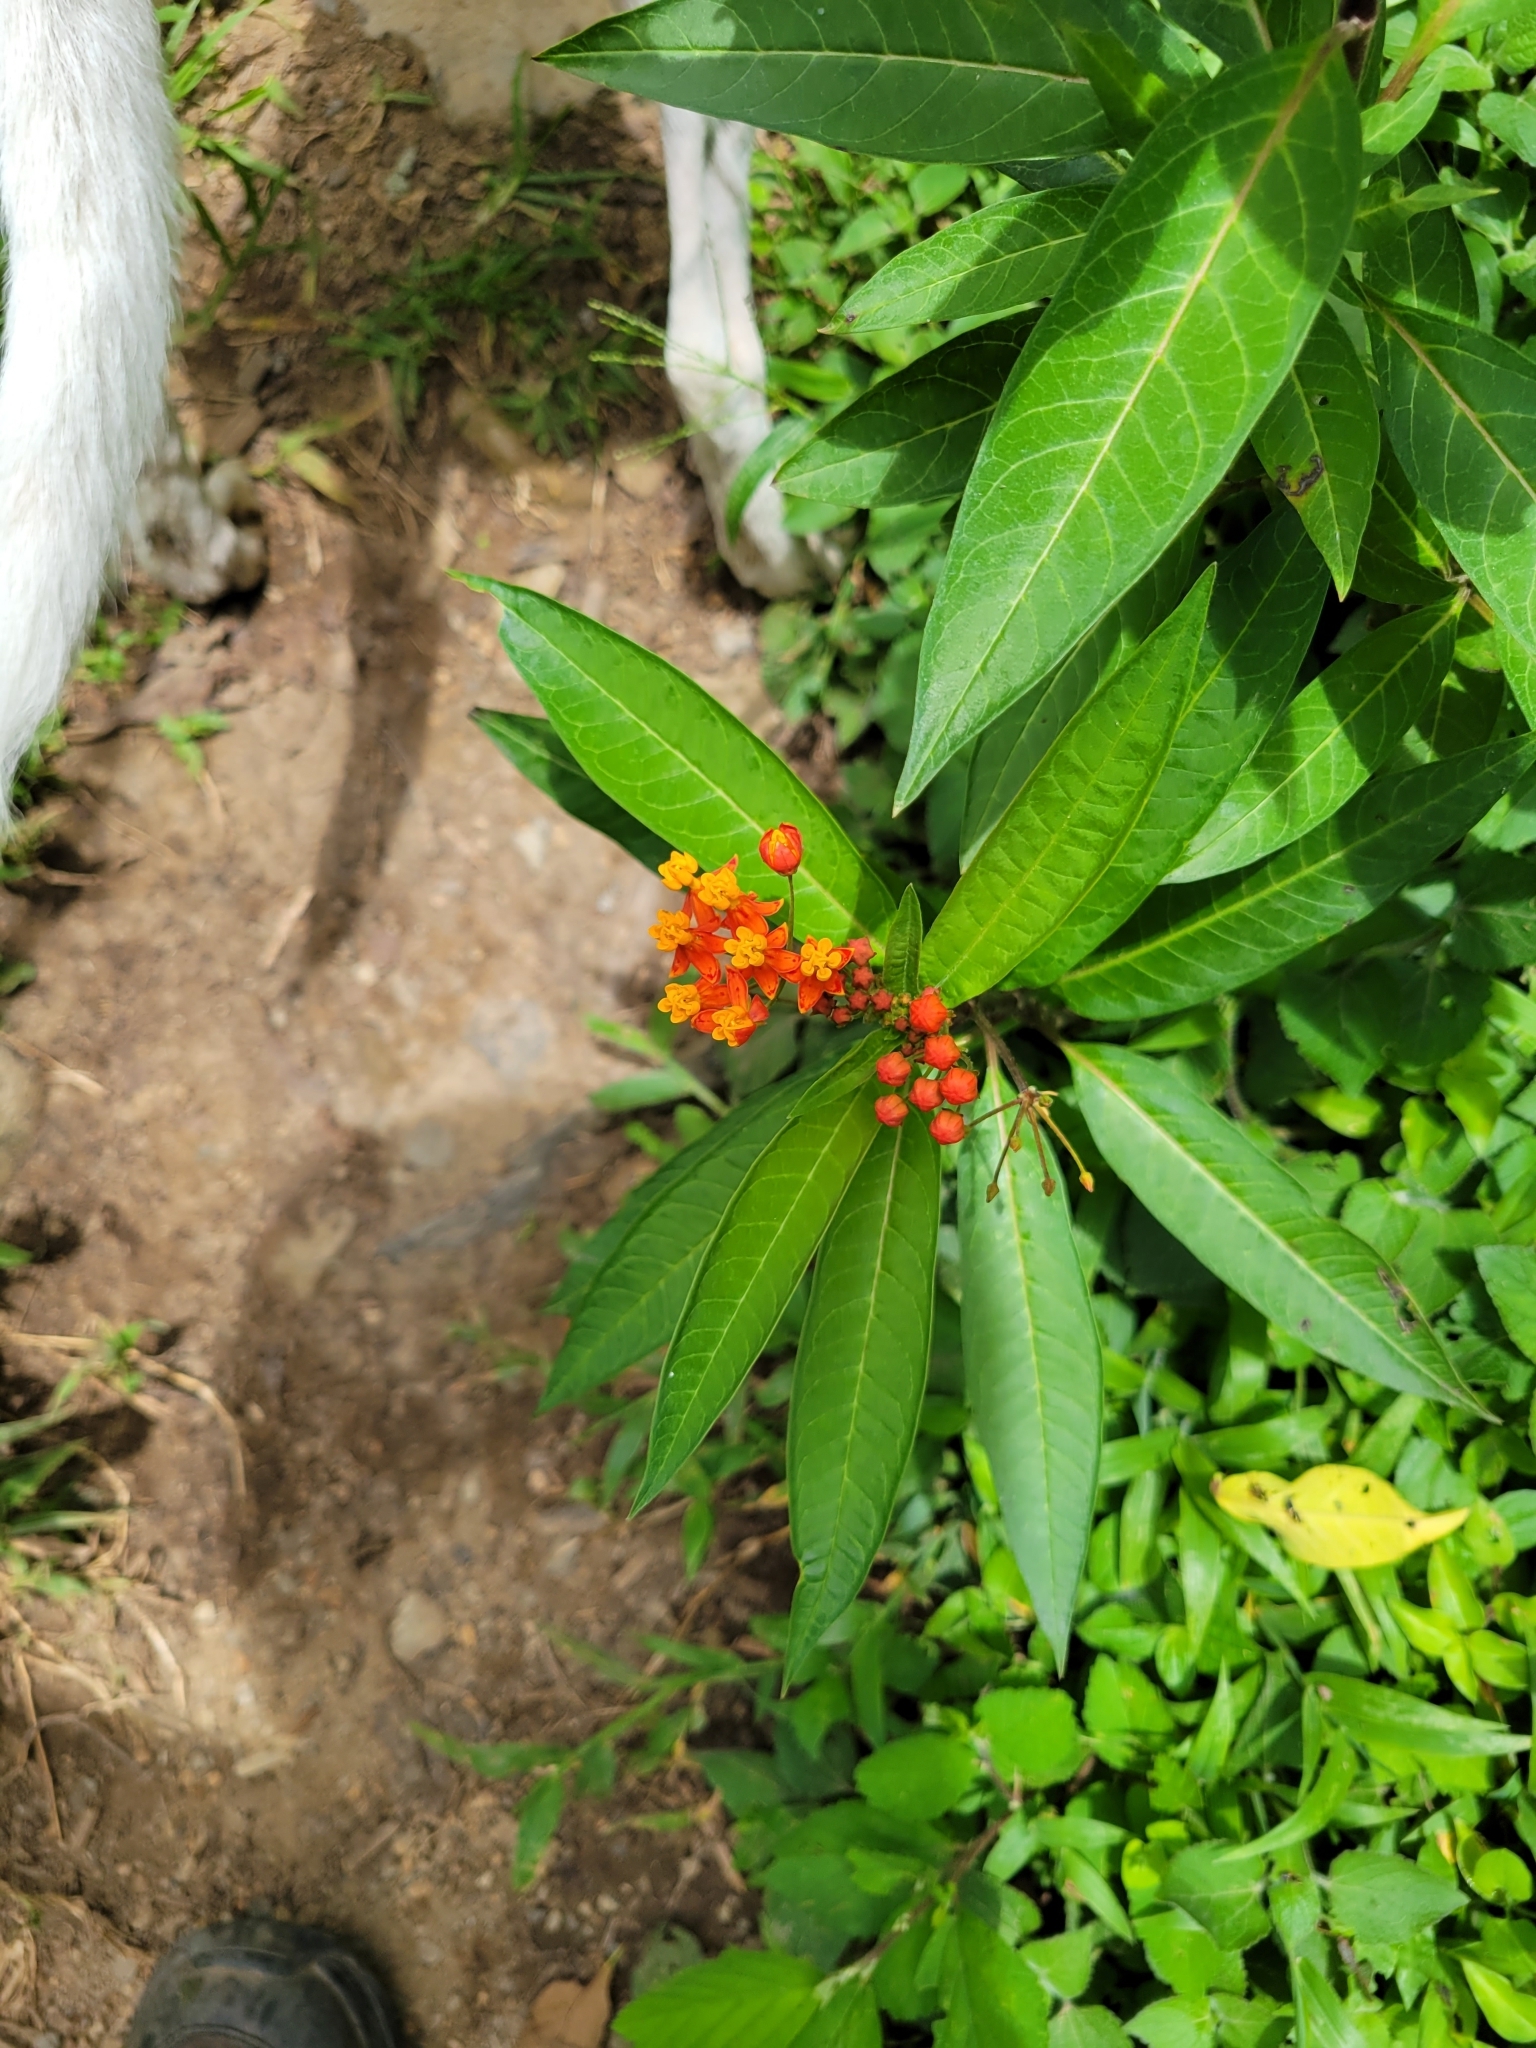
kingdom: Plantae
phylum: Tracheophyta
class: Magnoliopsida
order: Gentianales
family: Apocynaceae
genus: Asclepias
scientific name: Asclepias curassavica
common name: Bloodflower
